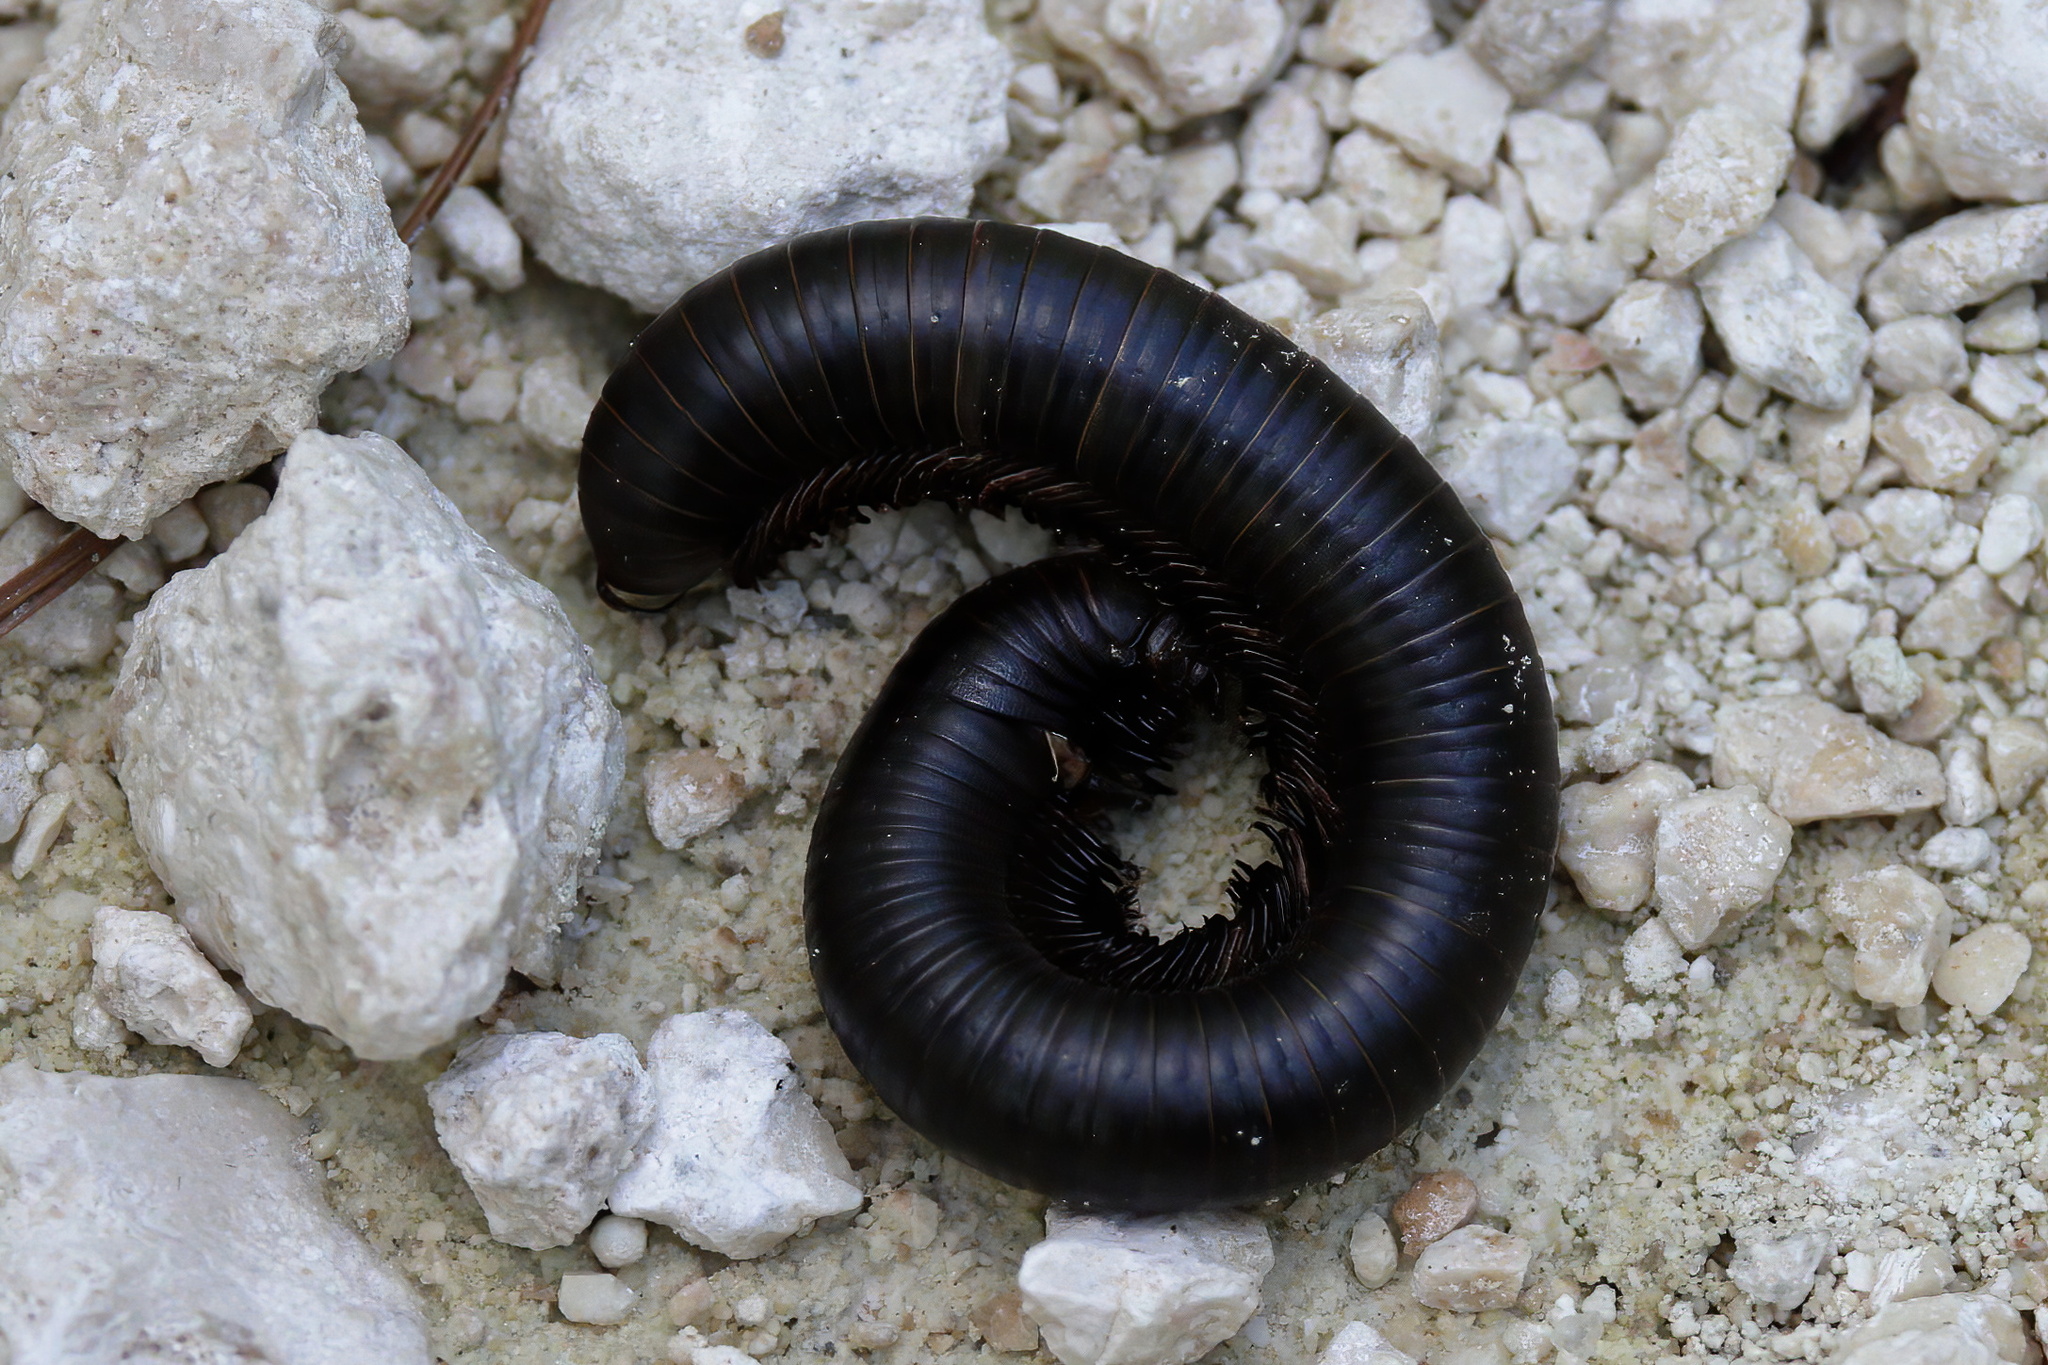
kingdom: Animalia
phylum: Arthropoda
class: Diplopoda
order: Spirobolida
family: Spirobolidae
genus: Narceus
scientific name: Narceus
